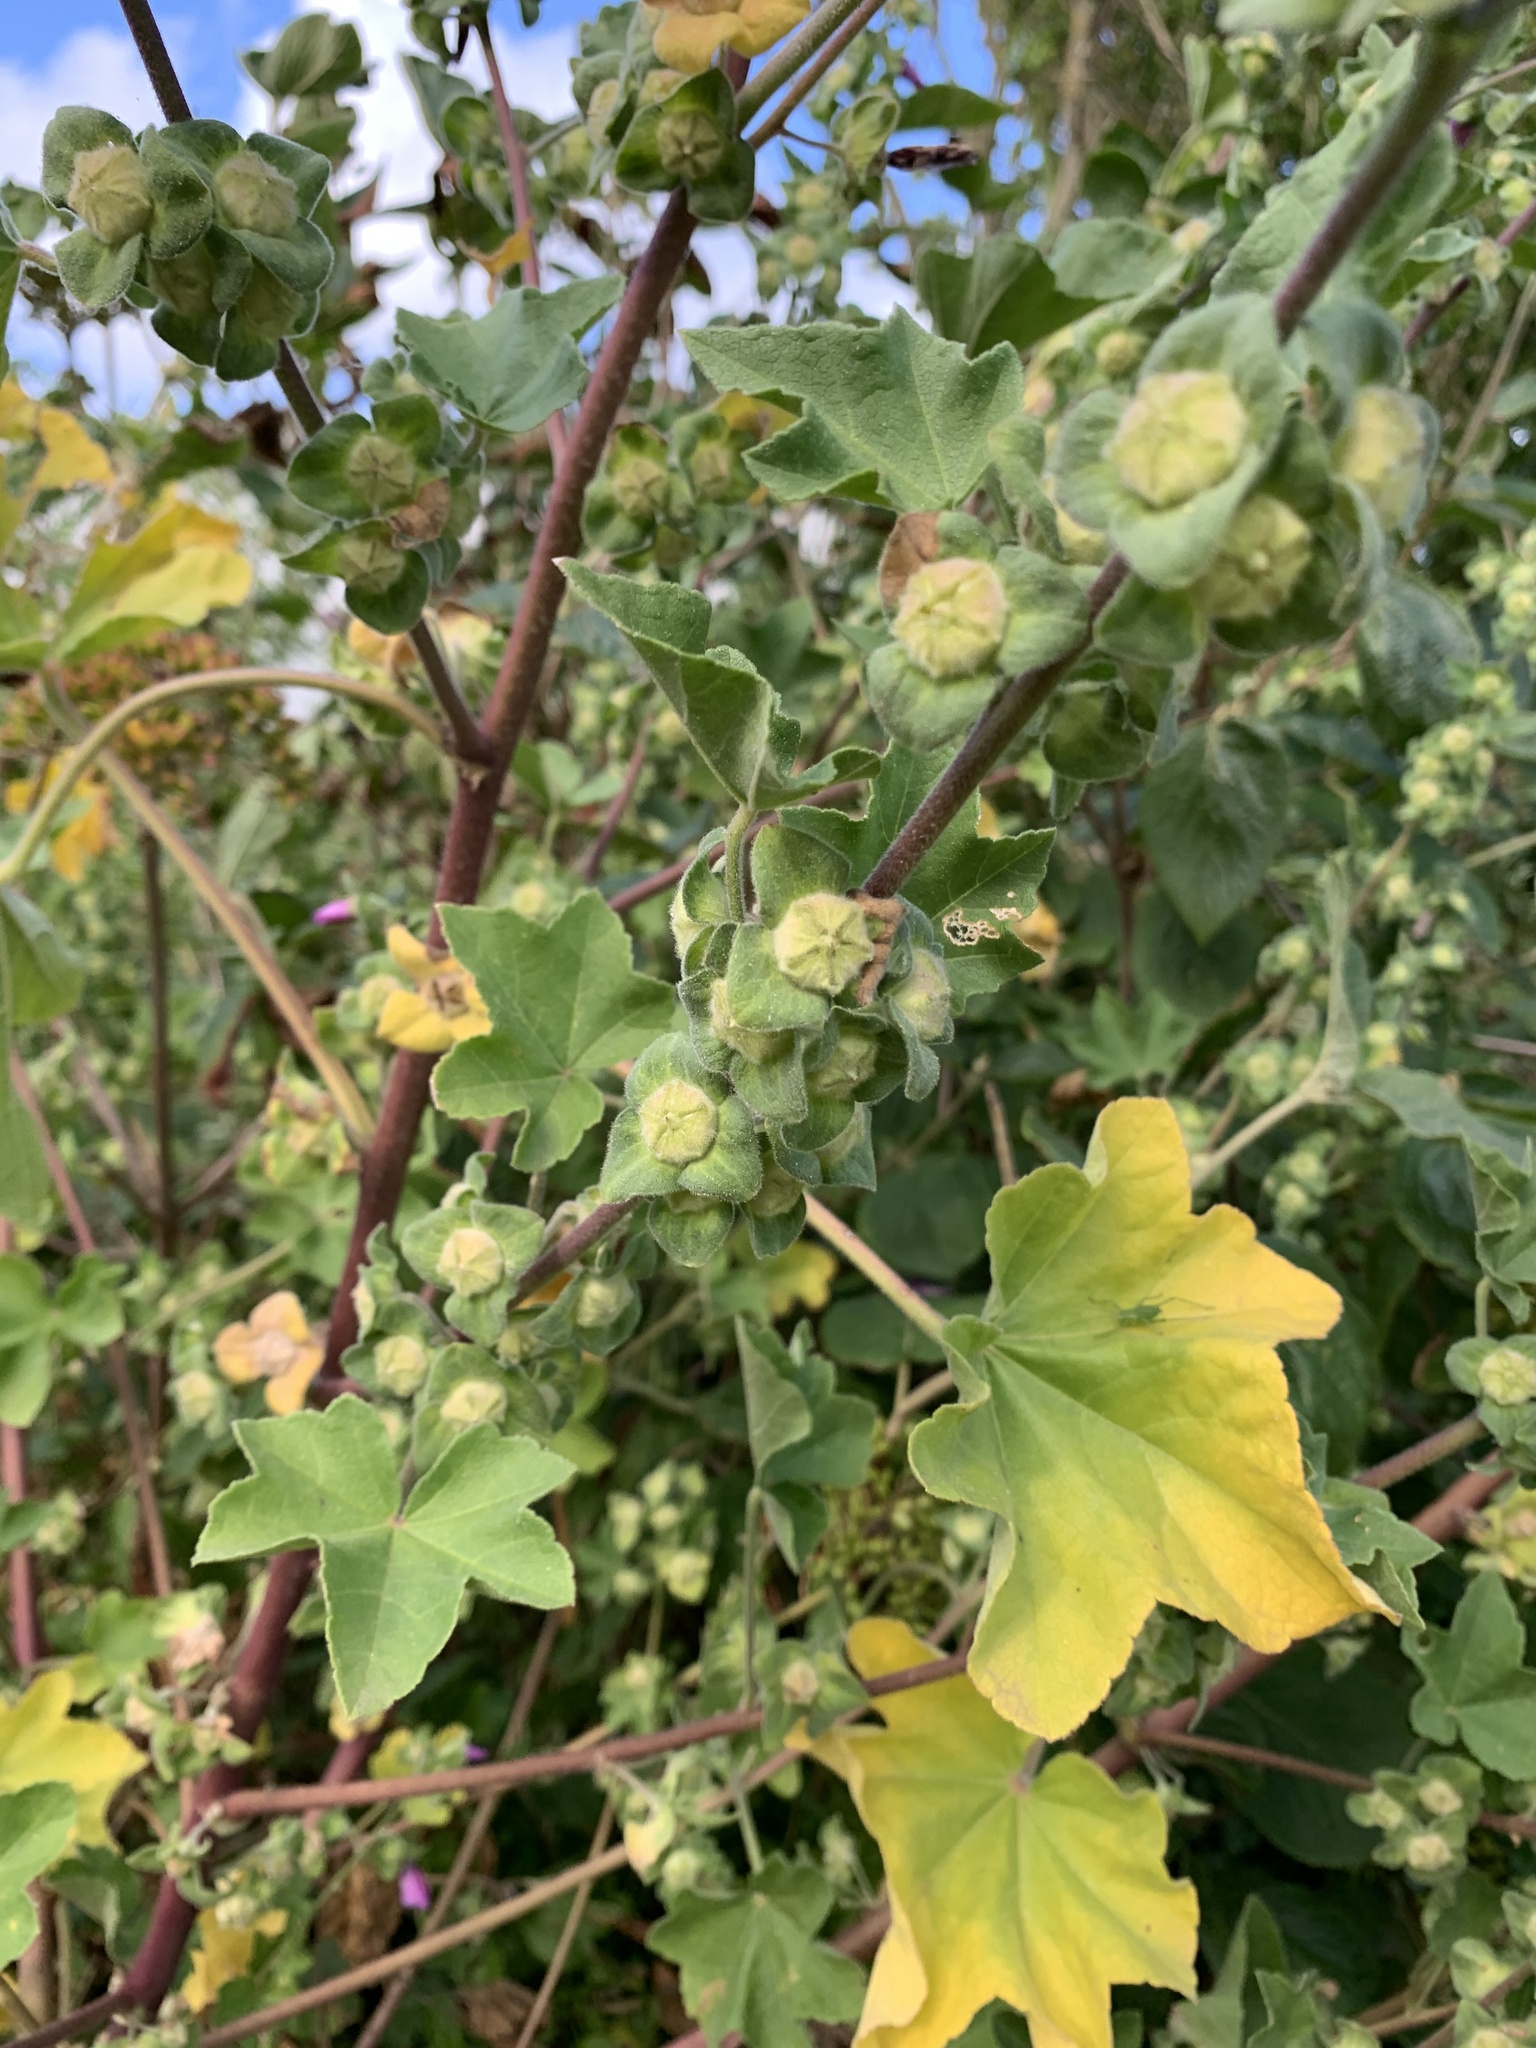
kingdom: Plantae
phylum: Tracheophyta
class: Magnoliopsida
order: Malvales
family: Malvaceae
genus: Malva
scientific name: Malva arborea
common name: Tree mallow
